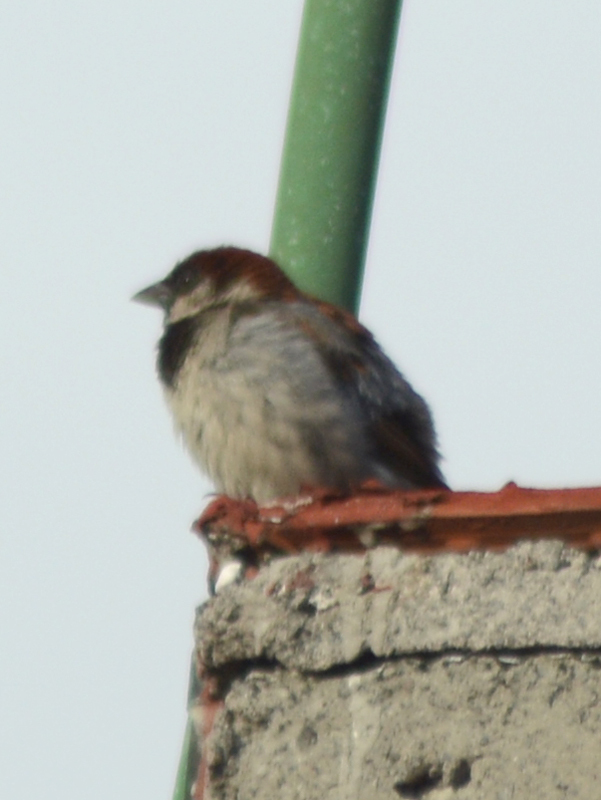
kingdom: Animalia
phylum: Chordata
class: Aves
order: Passeriformes
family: Passeridae
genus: Passer
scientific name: Passer domesticus
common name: House sparrow
